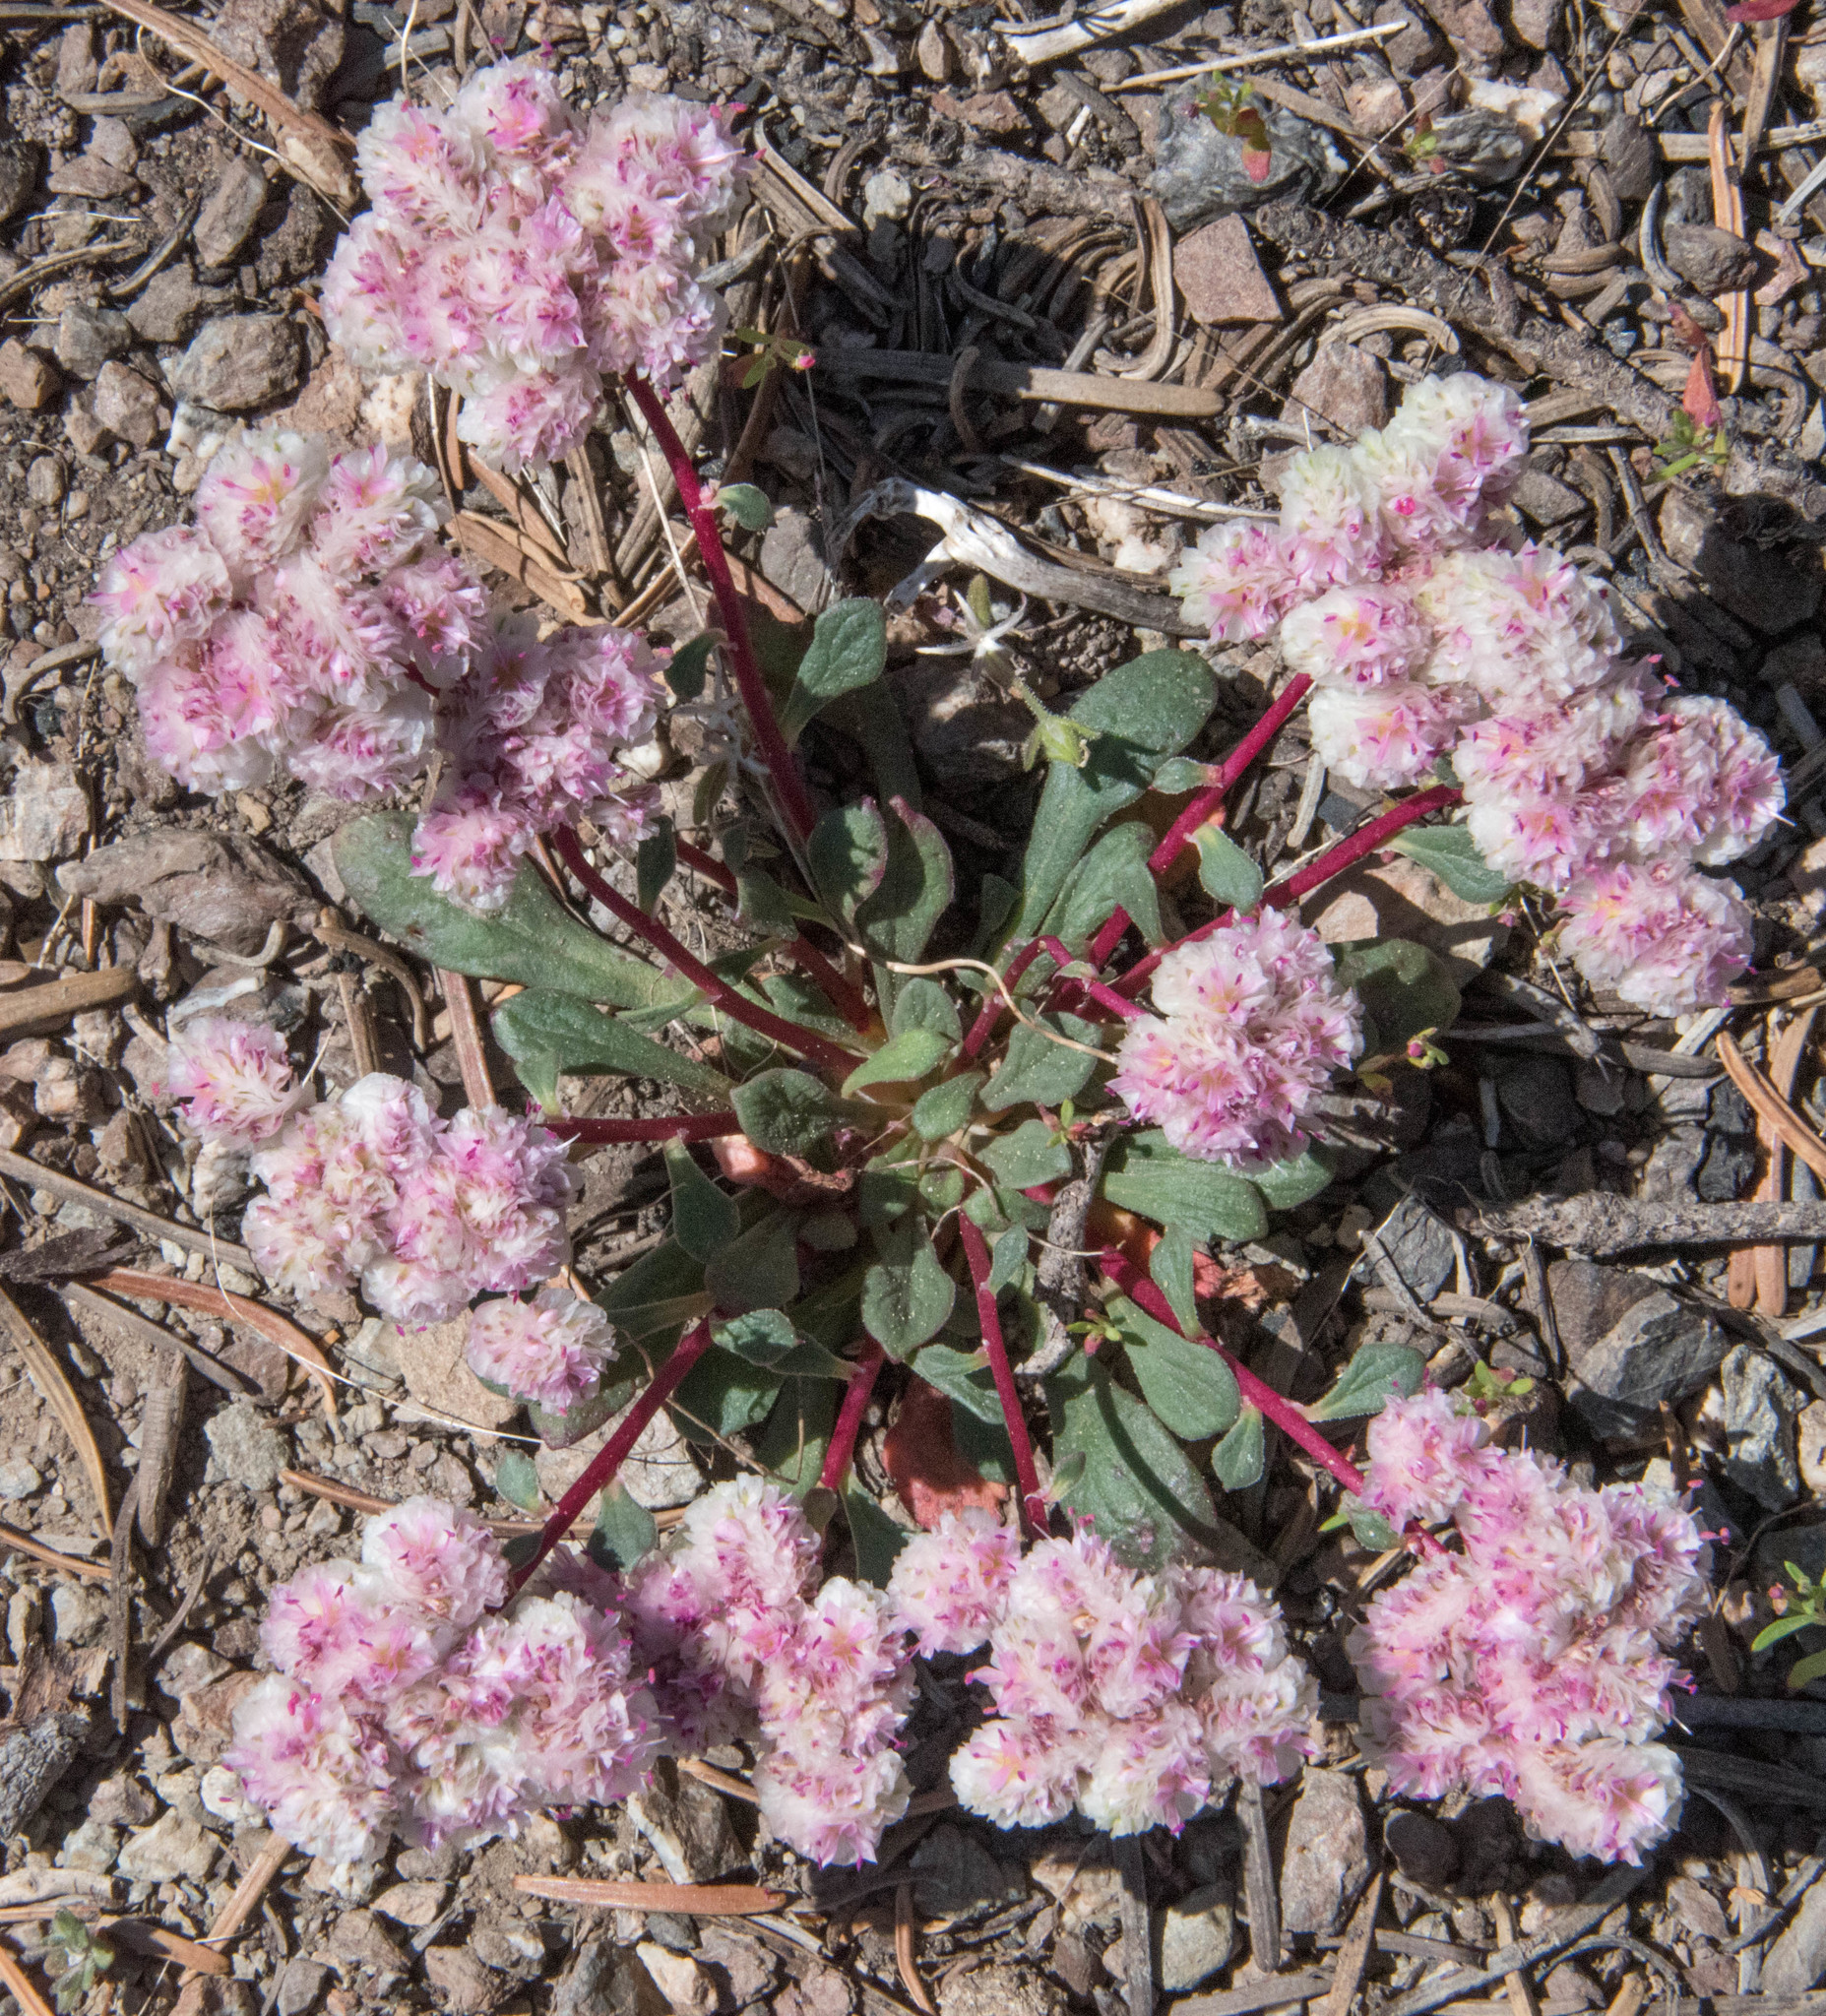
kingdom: Plantae
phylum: Tracheophyta
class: Magnoliopsida
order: Caryophyllales
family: Montiaceae
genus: Calyptridium
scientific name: Calyptridium monospermum
